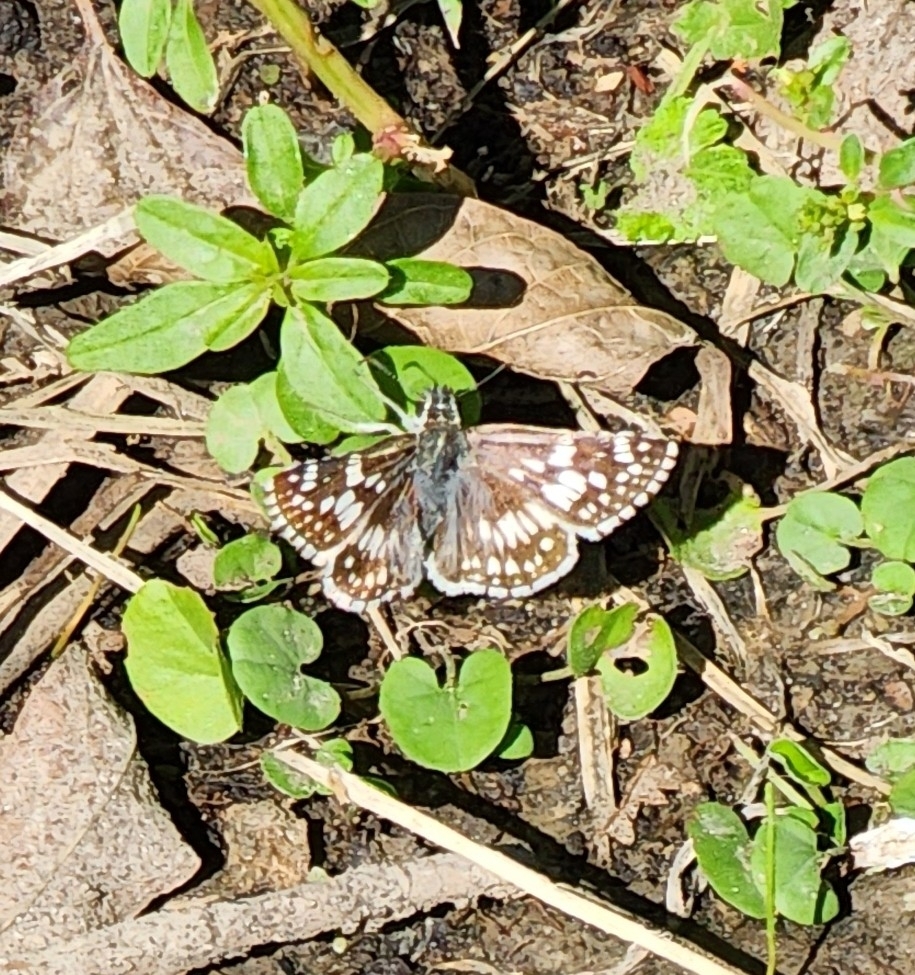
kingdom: Animalia
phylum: Arthropoda
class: Insecta
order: Lepidoptera
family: Hesperiidae
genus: Burnsius
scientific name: Burnsius
